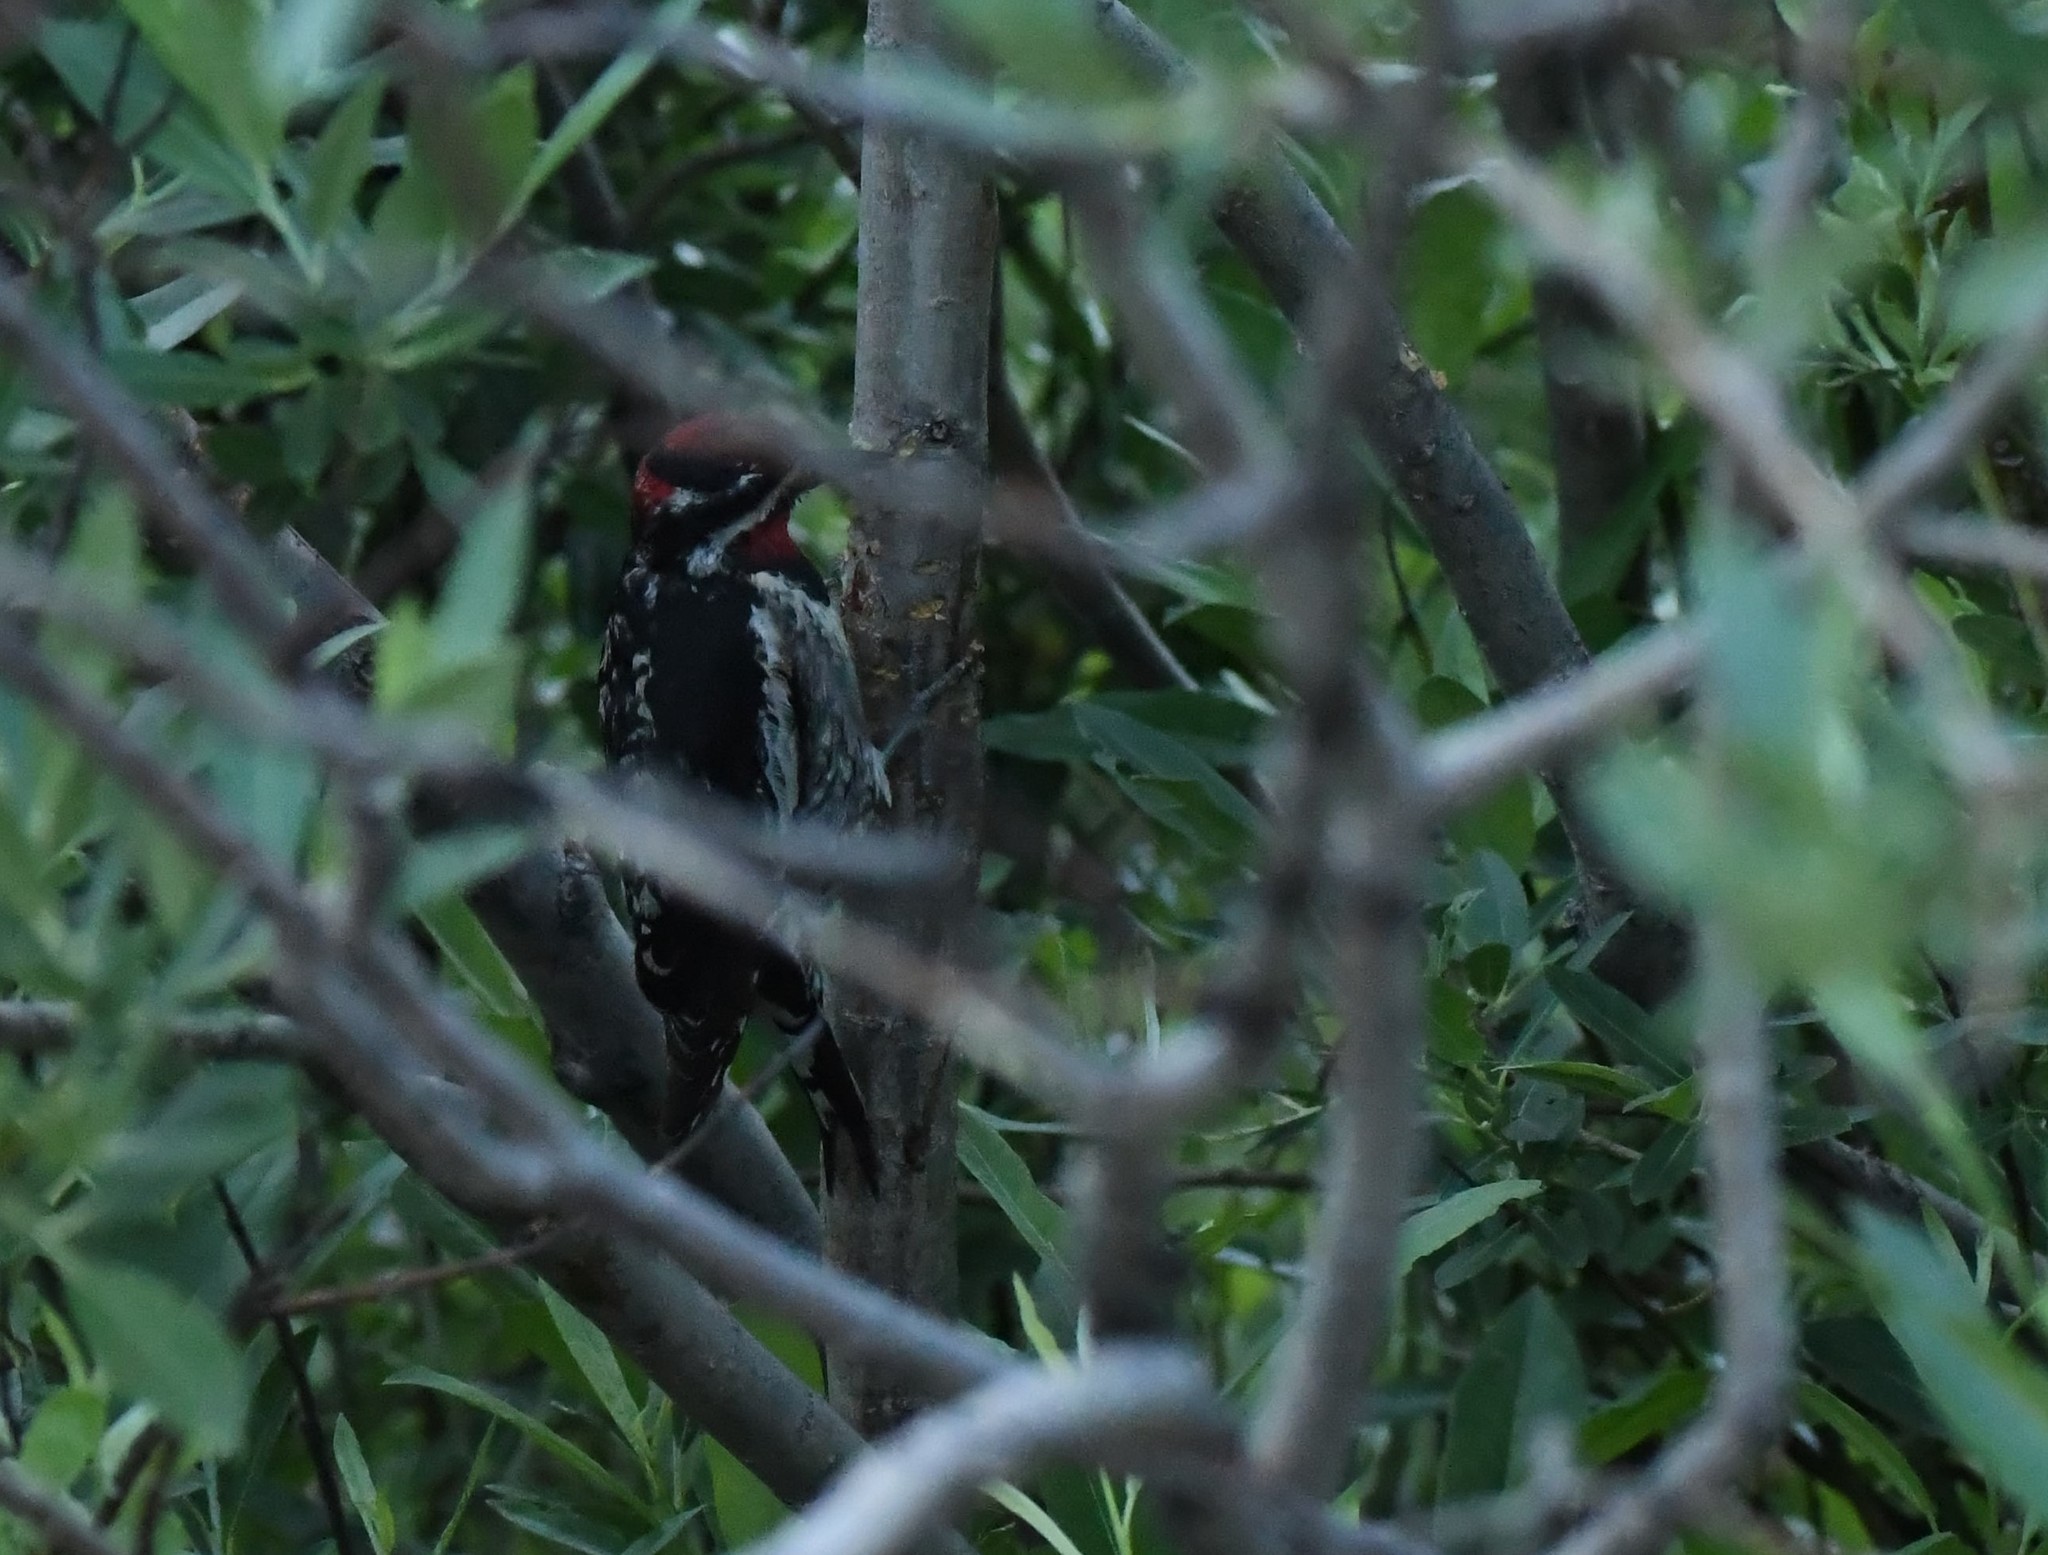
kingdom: Animalia
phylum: Chordata
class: Aves
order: Piciformes
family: Picidae
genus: Sphyrapicus
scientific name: Sphyrapicus nuchalis
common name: Red-naped sapsucker
